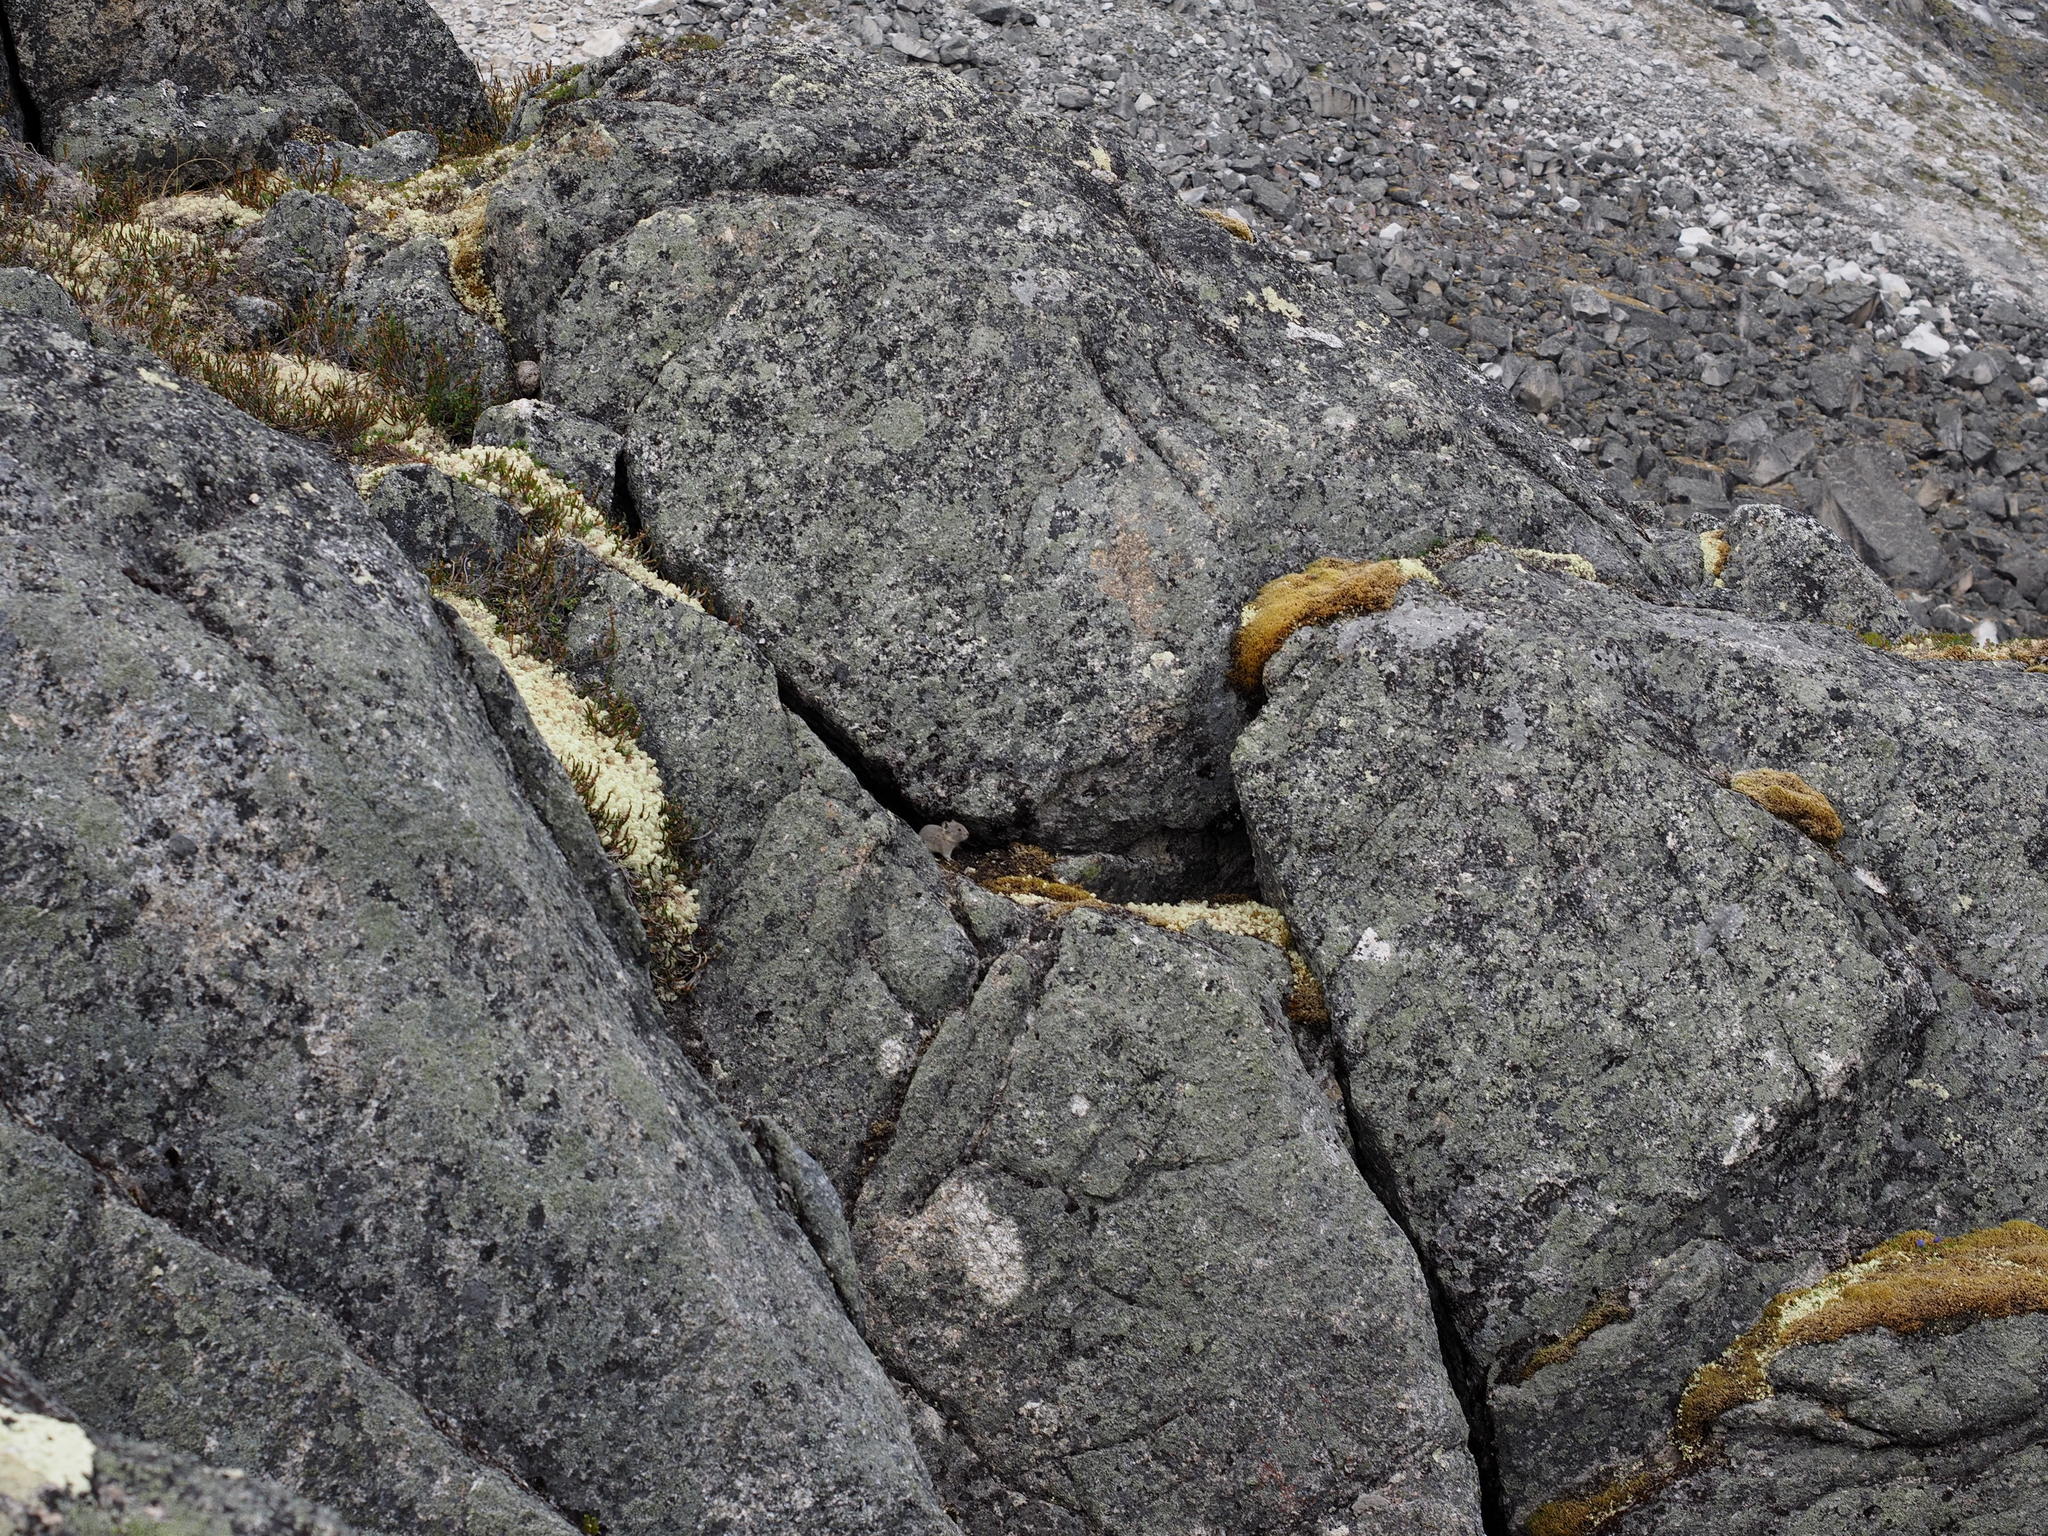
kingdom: Animalia
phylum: Chordata
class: Mammalia
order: Lagomorpha
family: Ochotonidae
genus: Ochotona
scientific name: Ochotona collaris
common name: Collared pika
